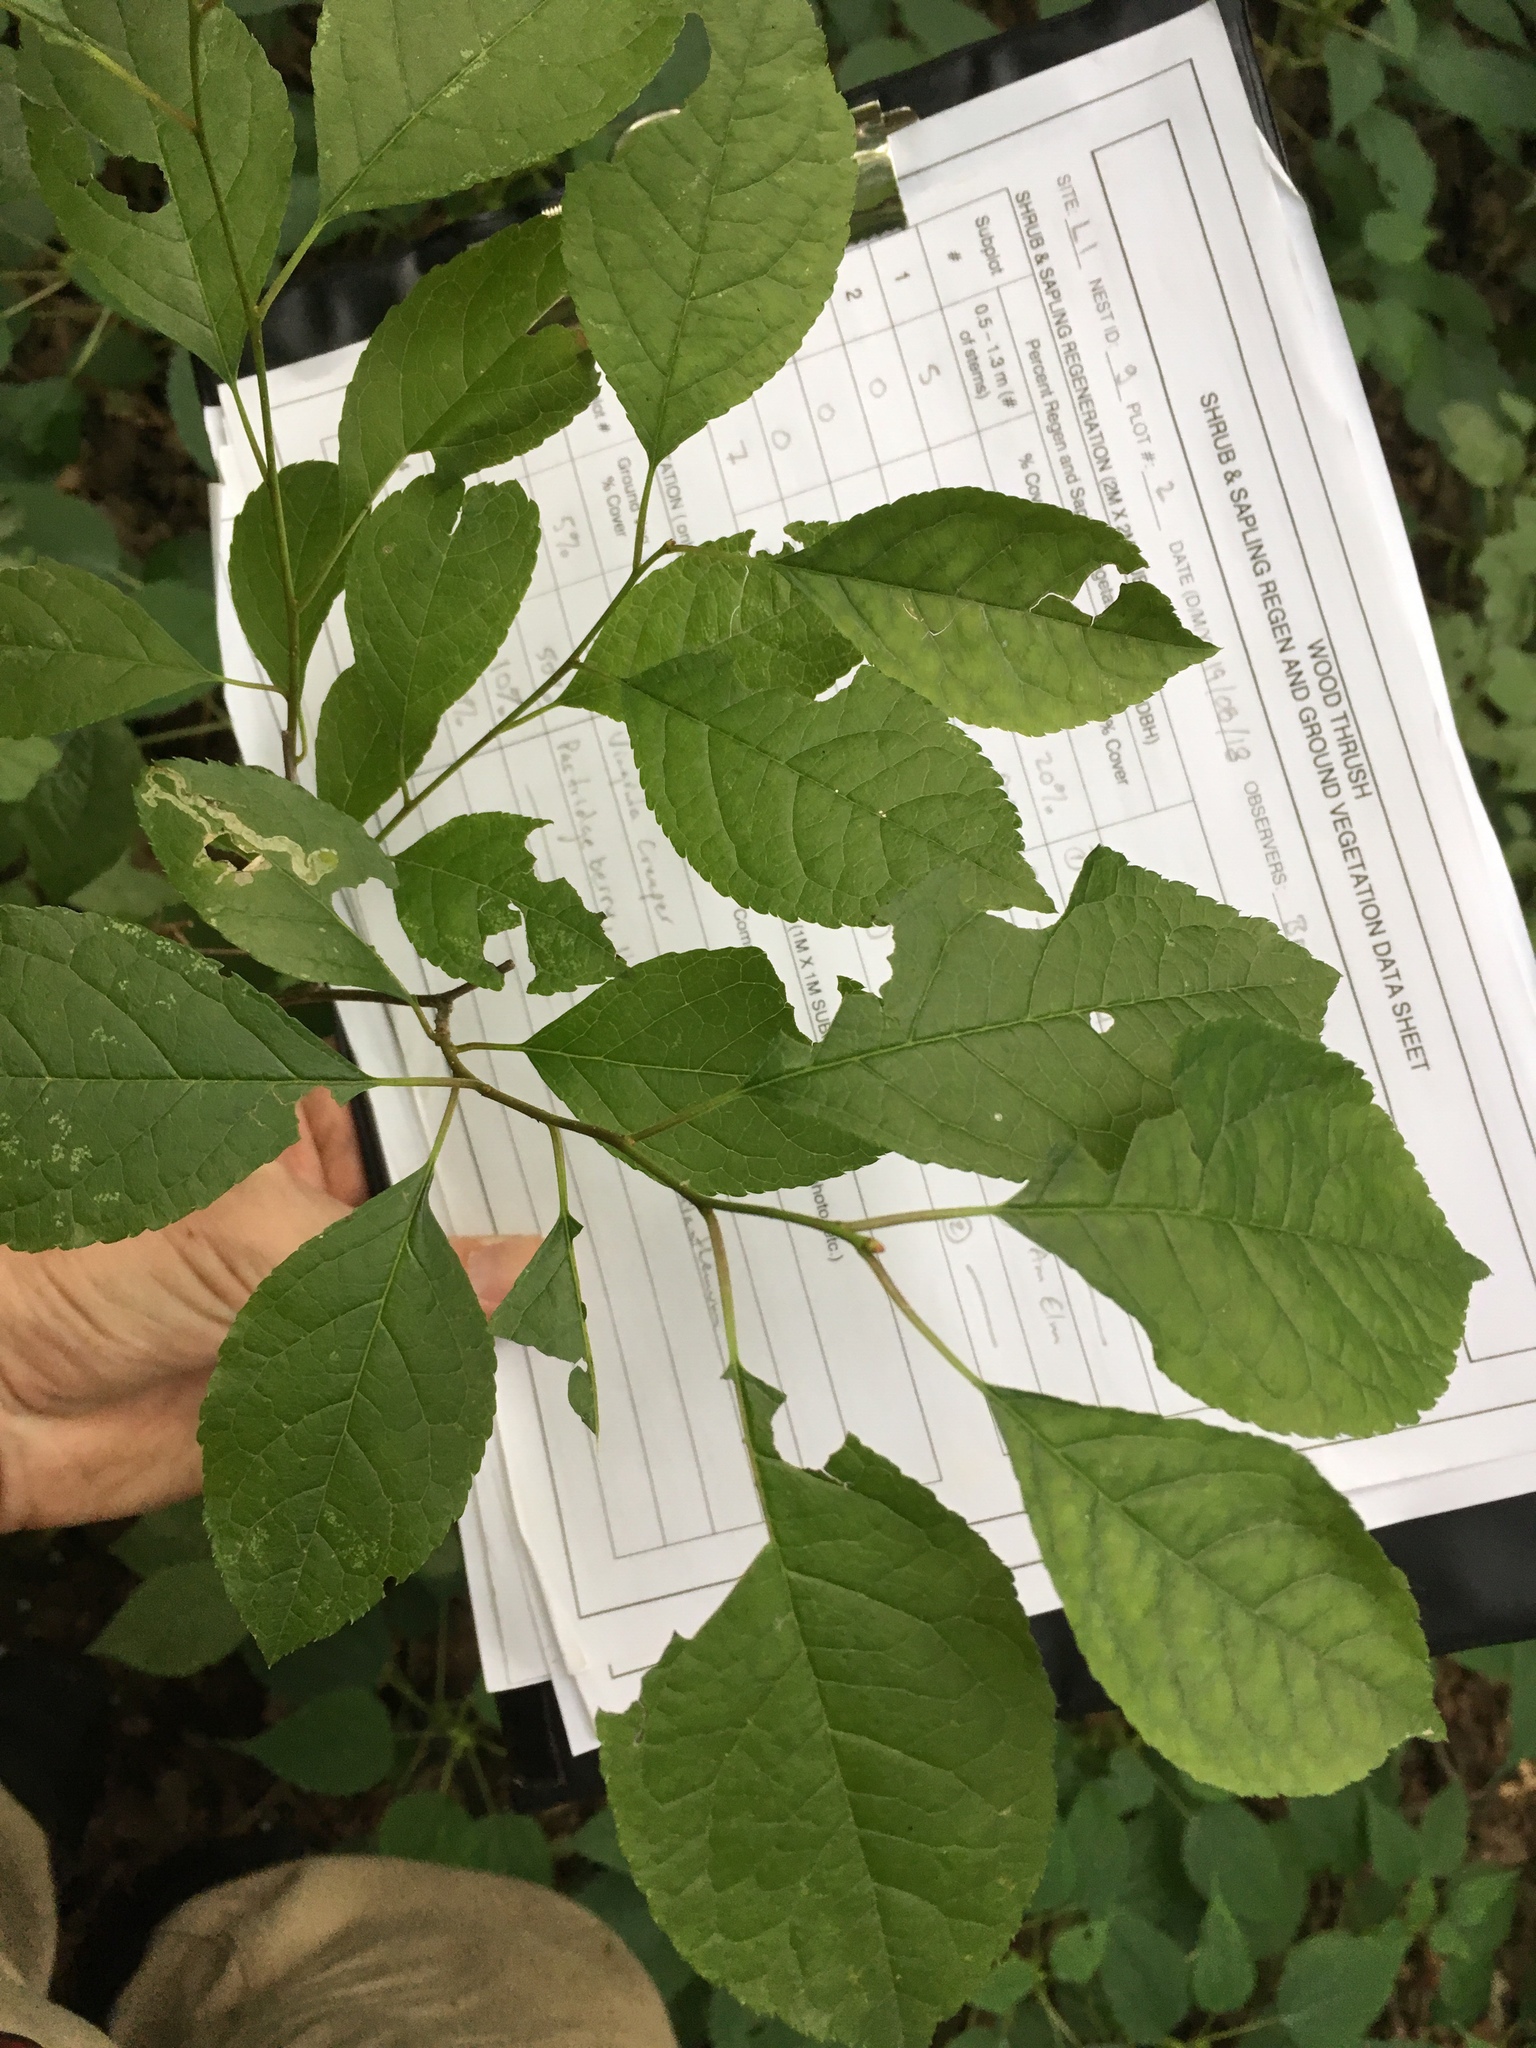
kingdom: Plantae
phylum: Tracheophyta
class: Magnoliopsida
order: Aquifoliales
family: Aquifoliaceae
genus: Ilex
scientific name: Ilex verticillata
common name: Virginia winterberry
